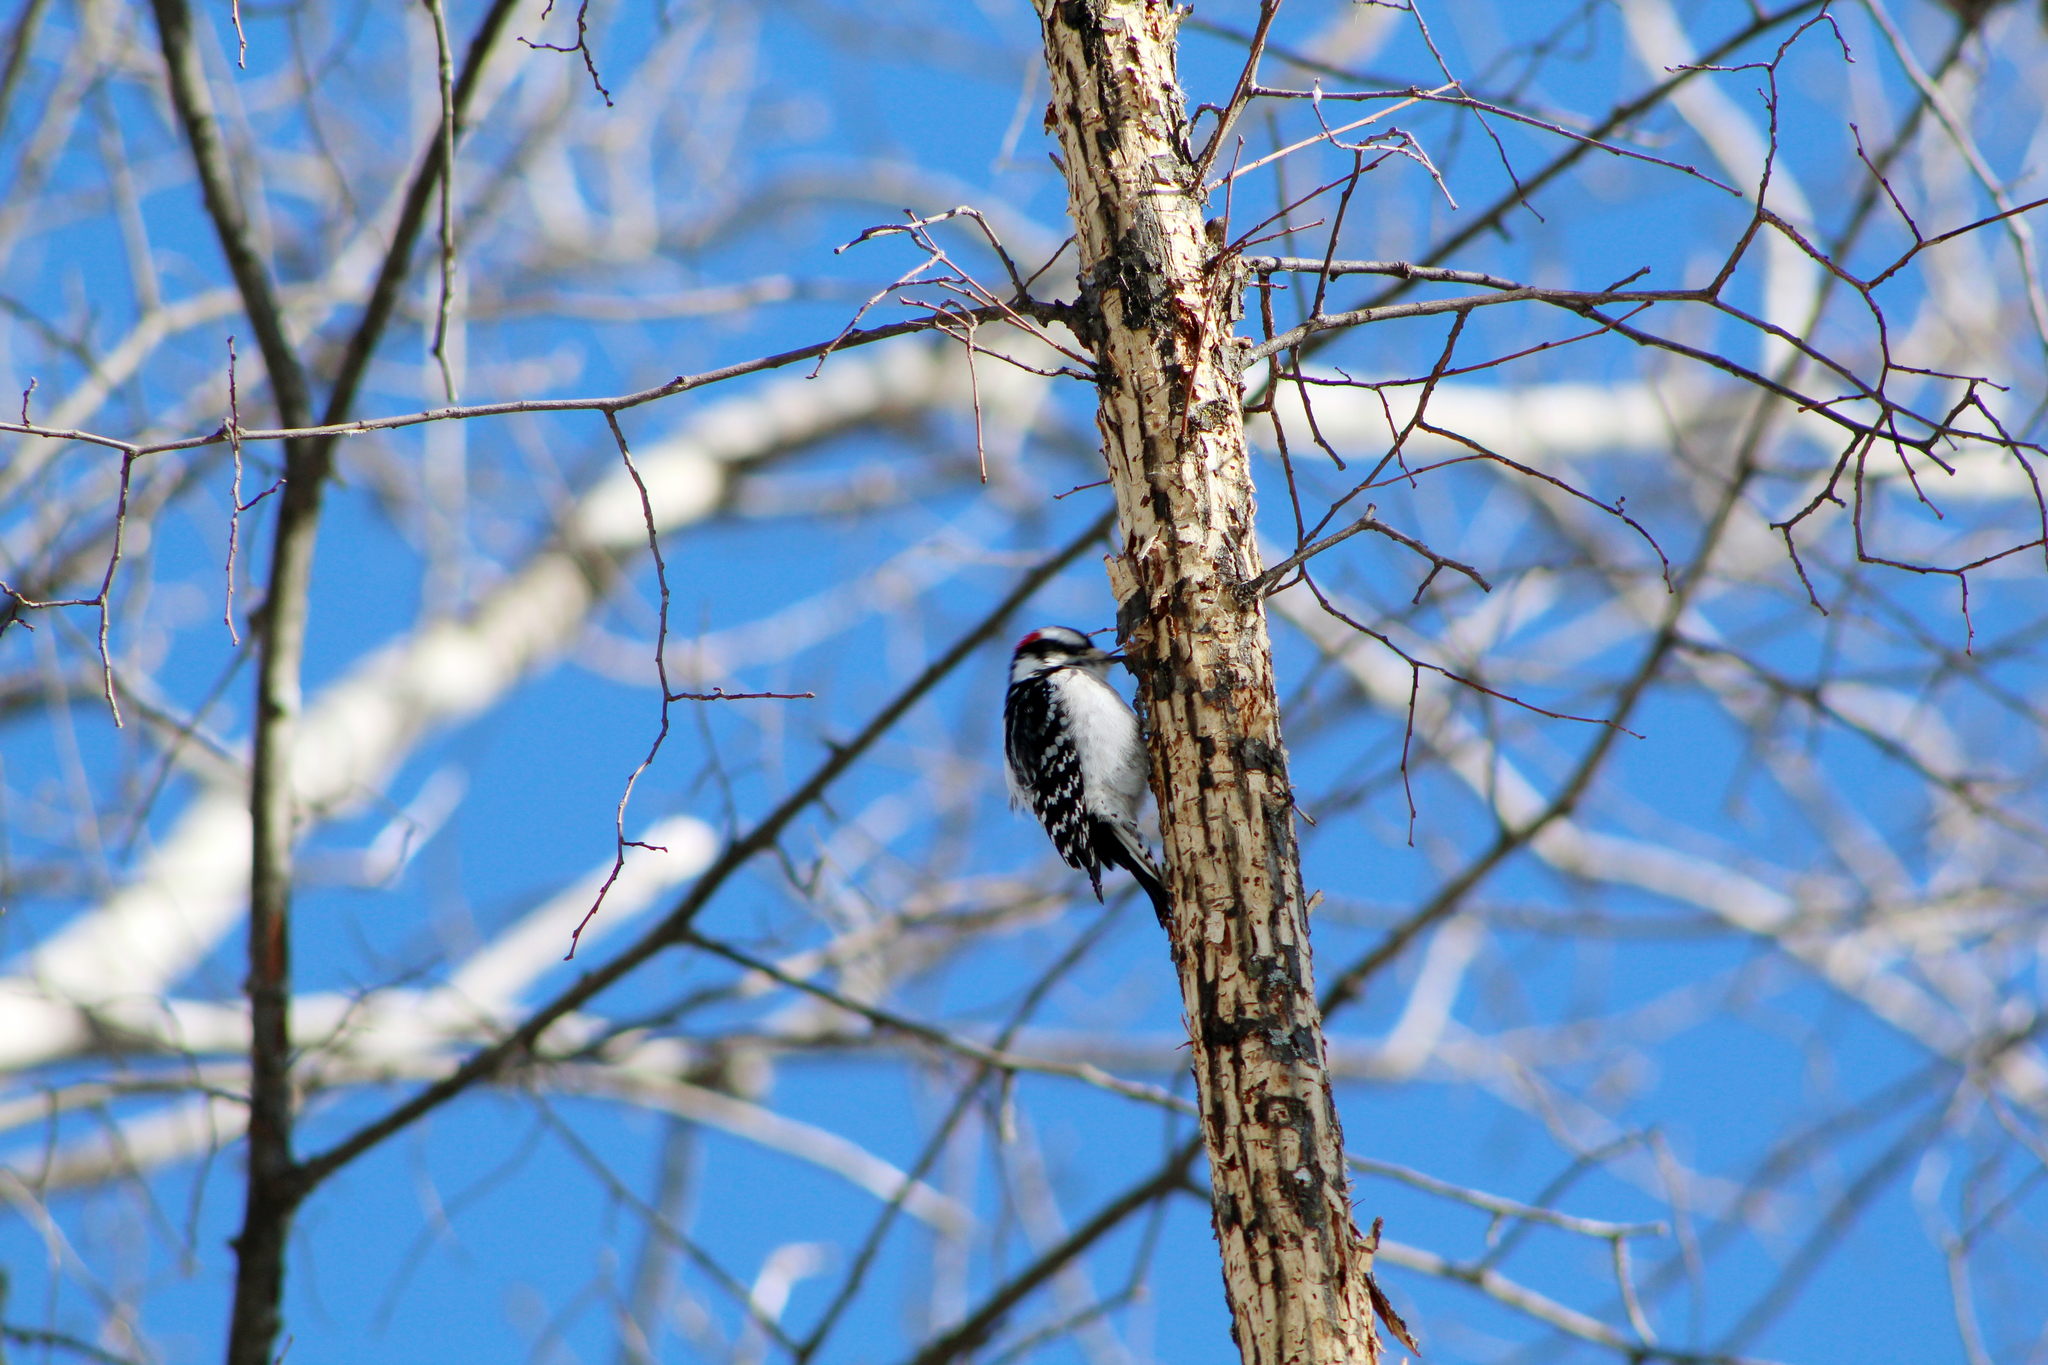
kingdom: Animalia
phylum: Chordata
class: Aves
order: Piciformes
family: Picidae
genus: Dryobates
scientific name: Dryobates pubescens
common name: Downy woodpecker
